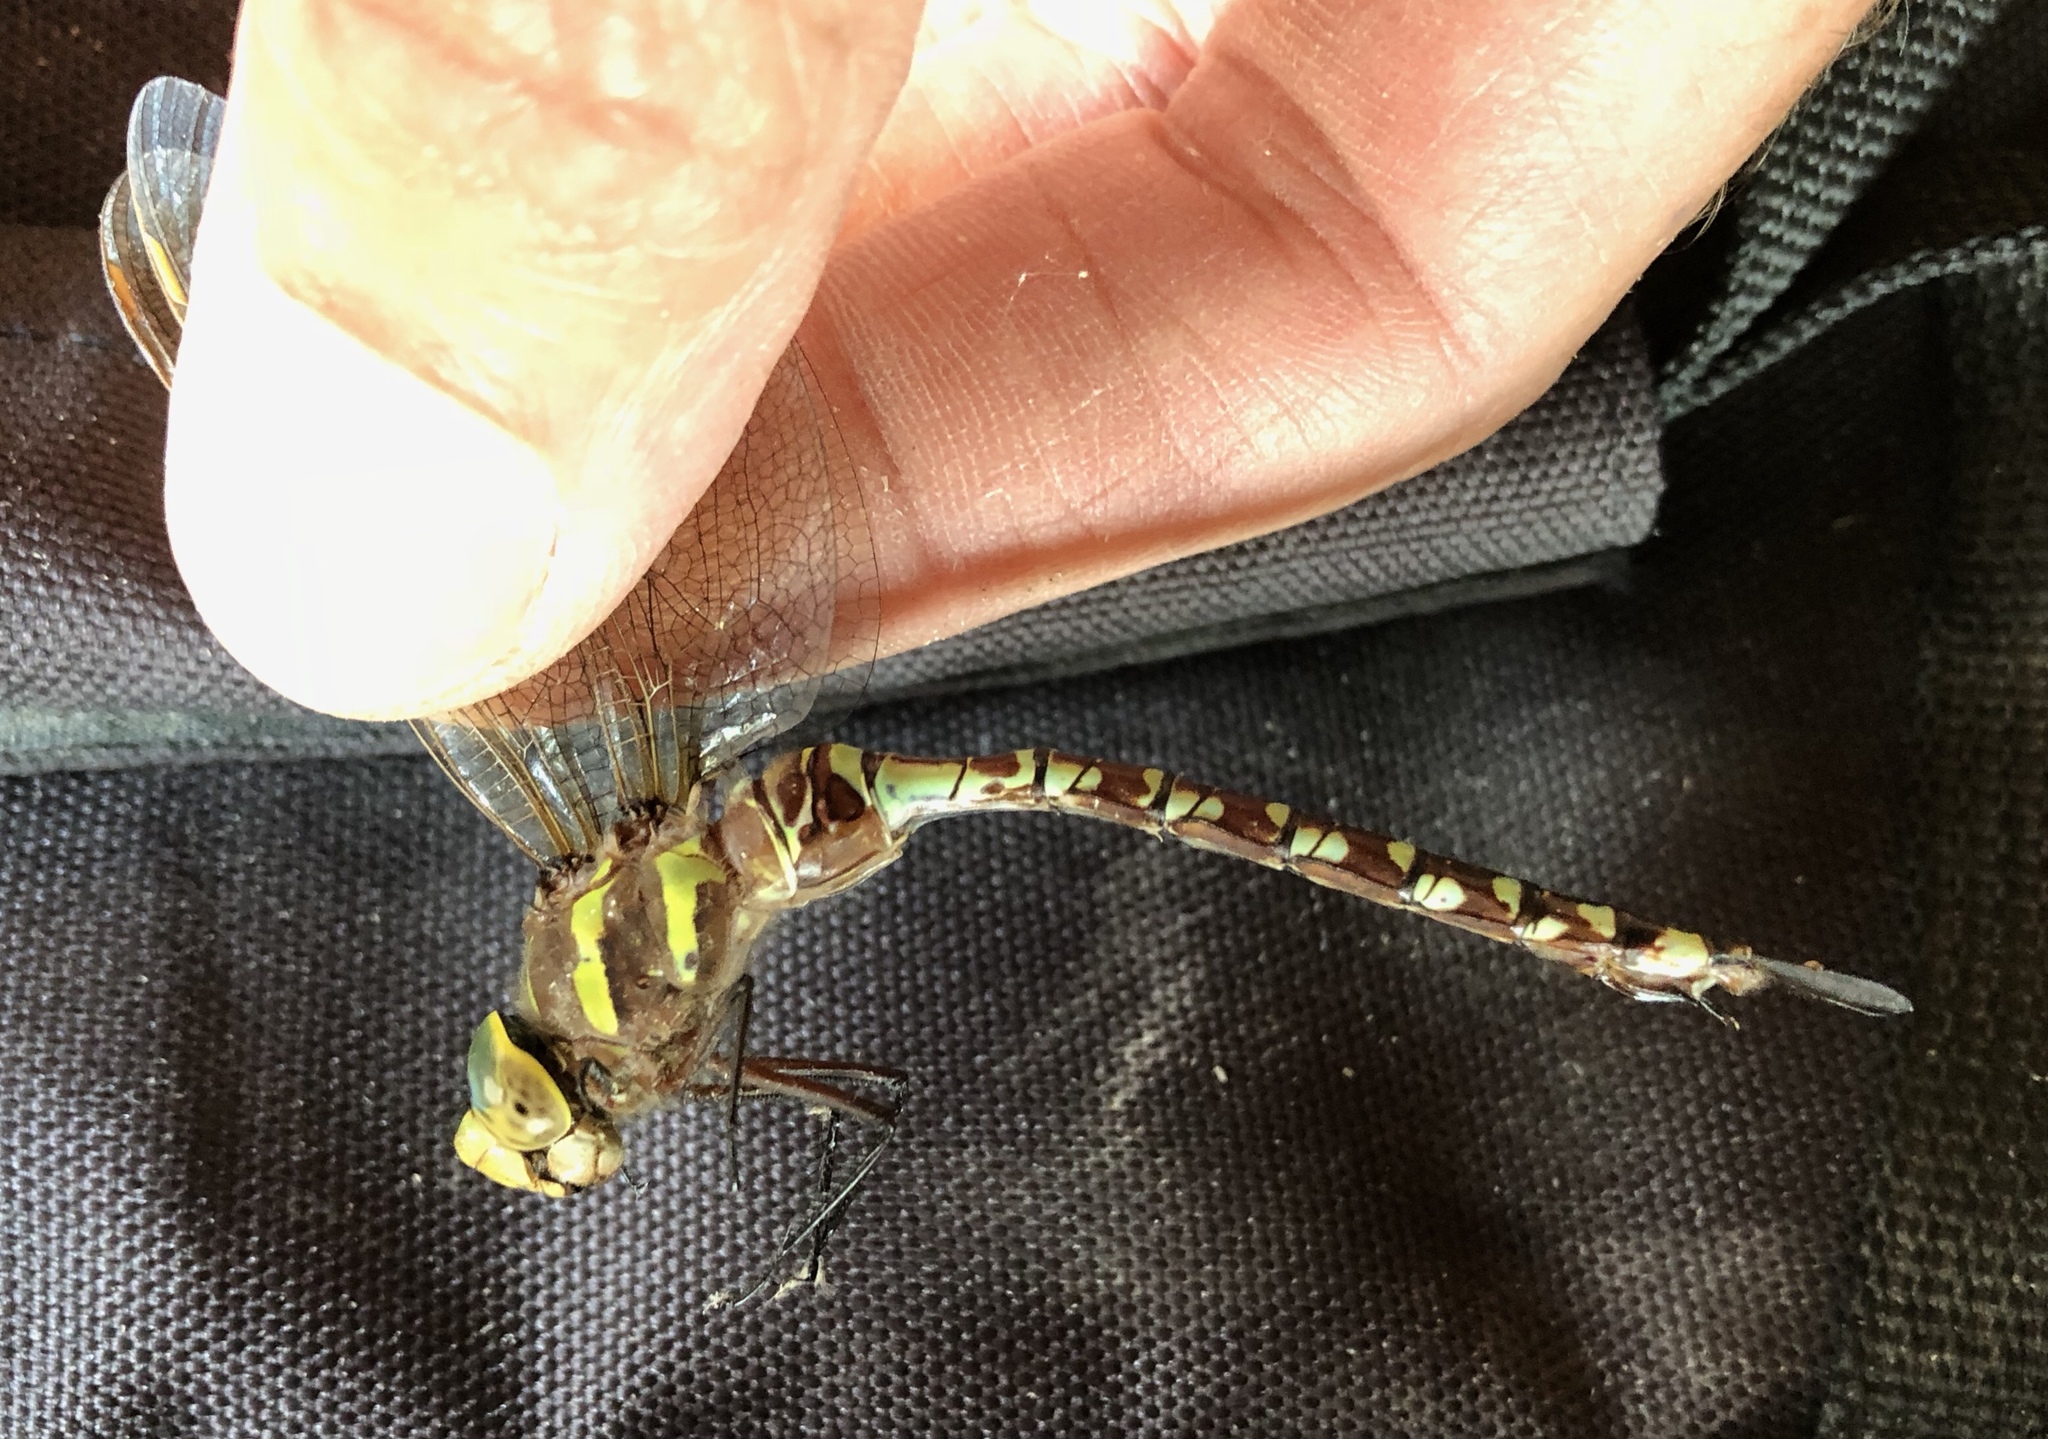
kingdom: Animalia
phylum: Arthropoda
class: Insecta
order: Odonata
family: Aeshnidae
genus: Aeshna
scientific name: Aeshna constricta
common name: Lance-tipped darner
